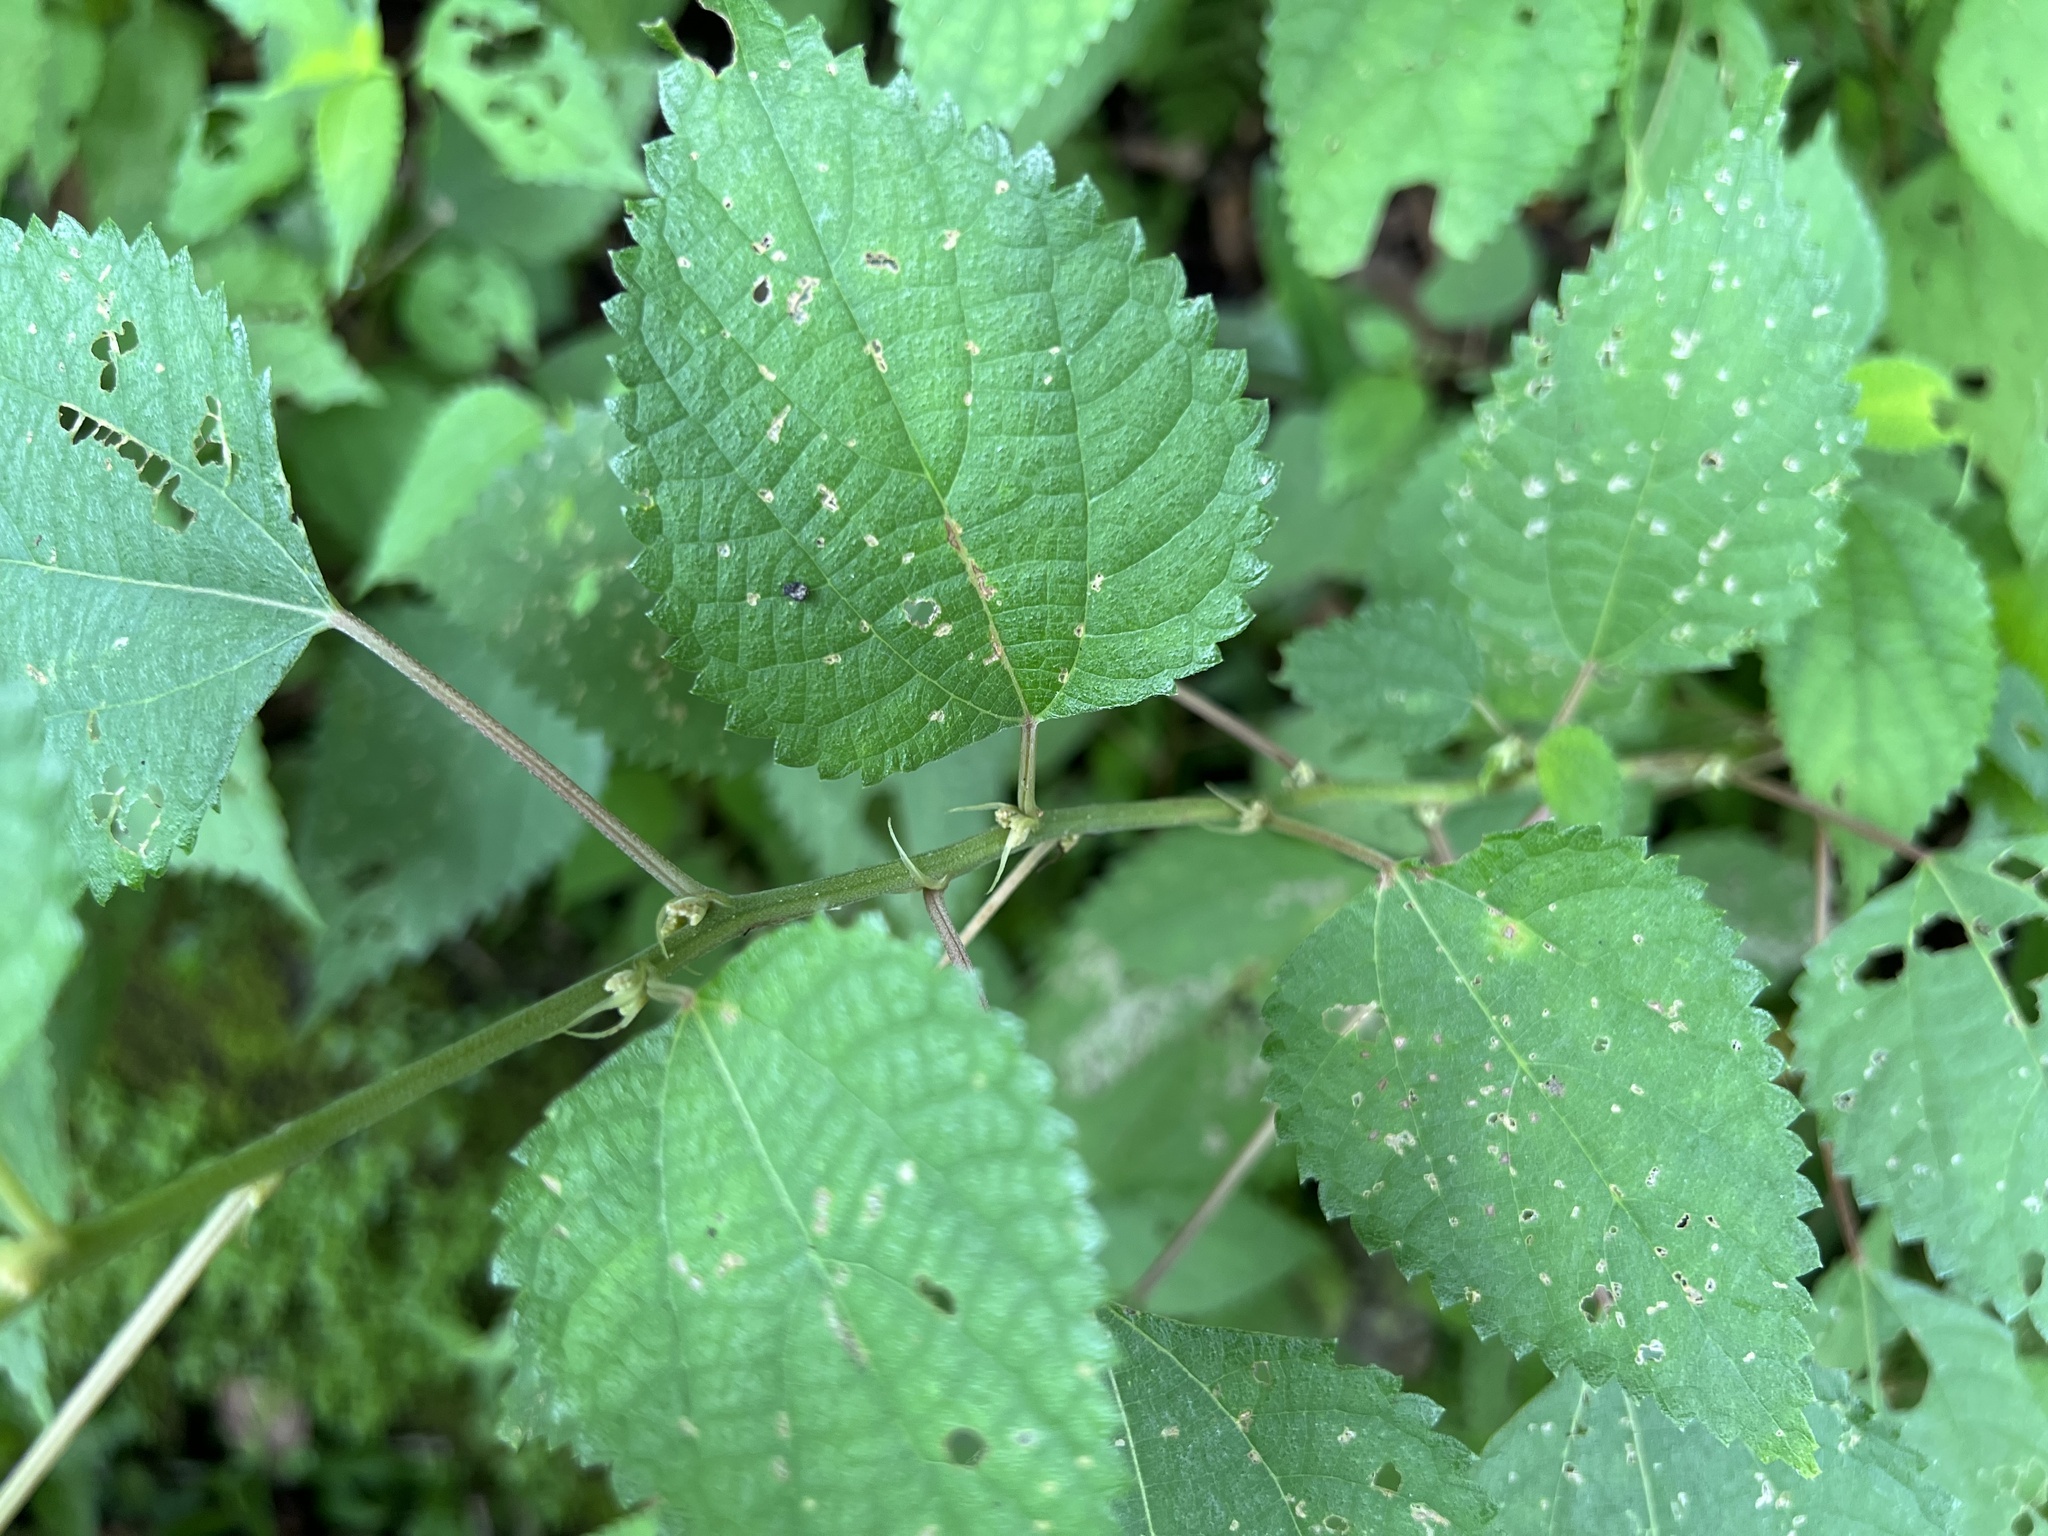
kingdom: Plantae
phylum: Tracheophyta
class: Magnoliopsida
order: Rosales
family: Urticaceae
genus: Boehmeria
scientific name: Boehmeria nivea
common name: Ramie chinese grass
